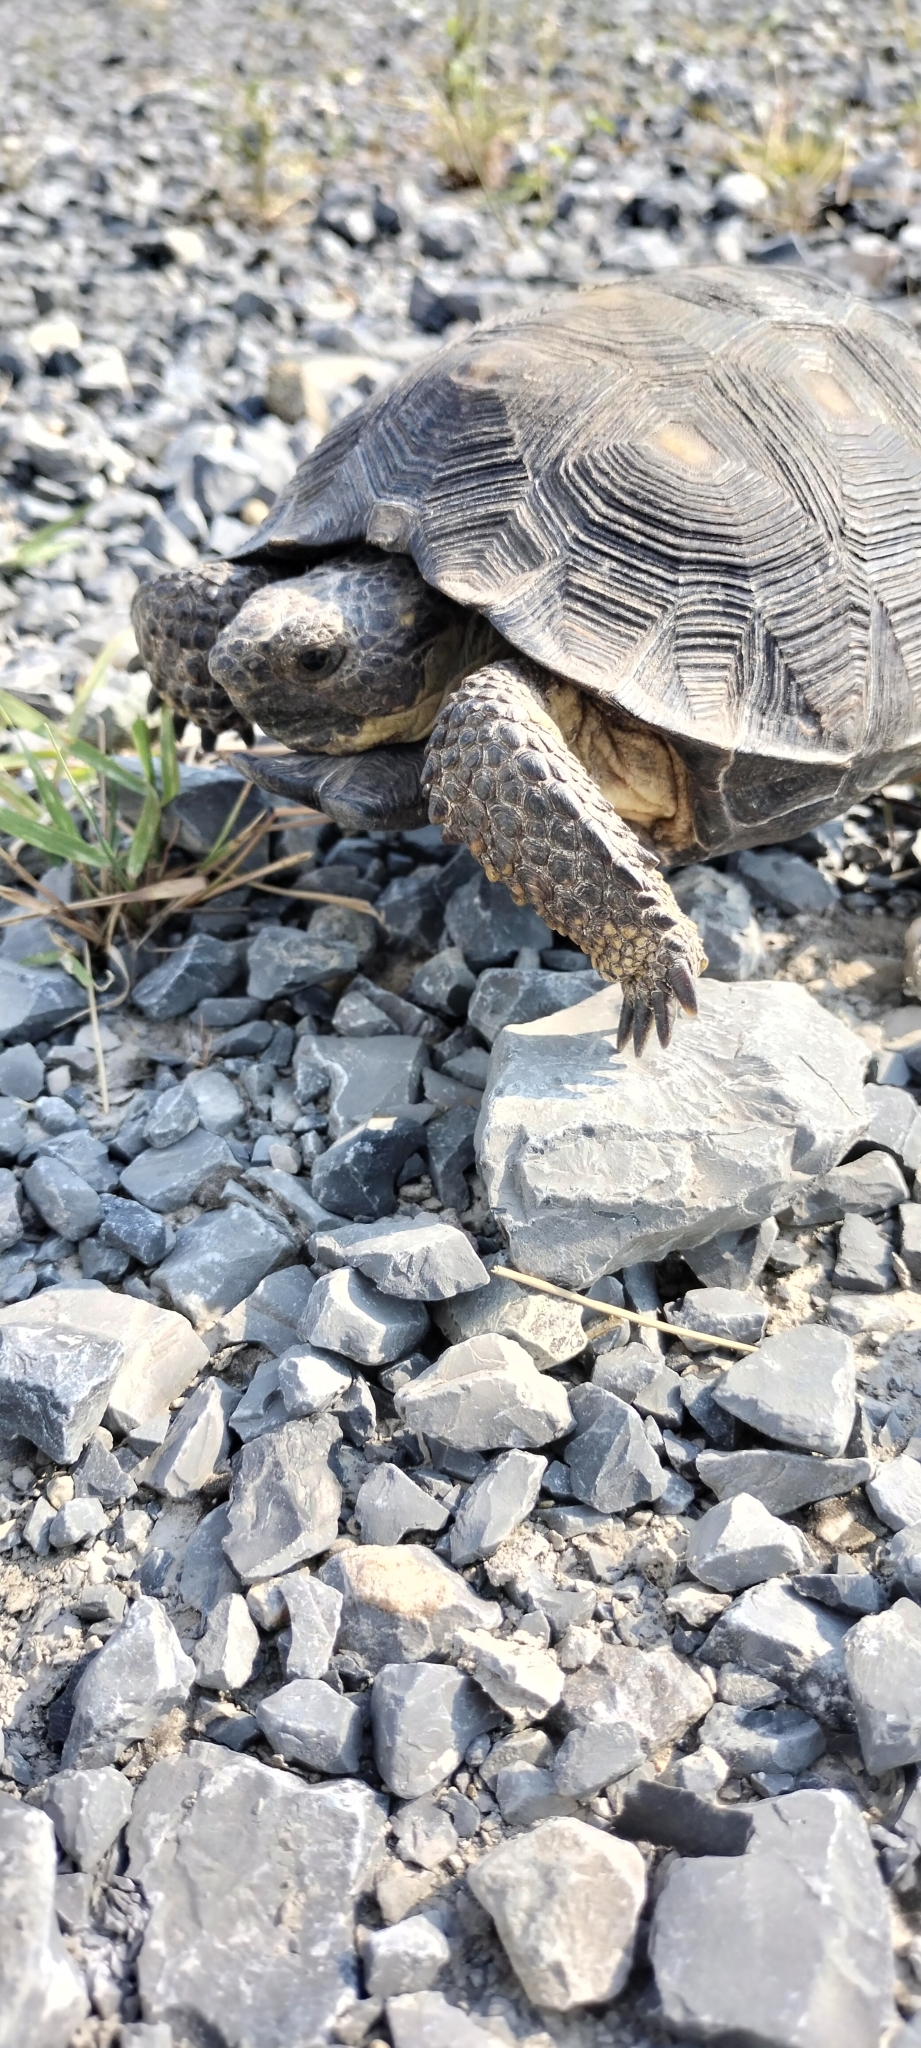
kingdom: Animalia
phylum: Chordata
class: Testudines
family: Testudinidae
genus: Gopherus
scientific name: Gopherus berlandieri
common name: Texas (gopher )tortoise
